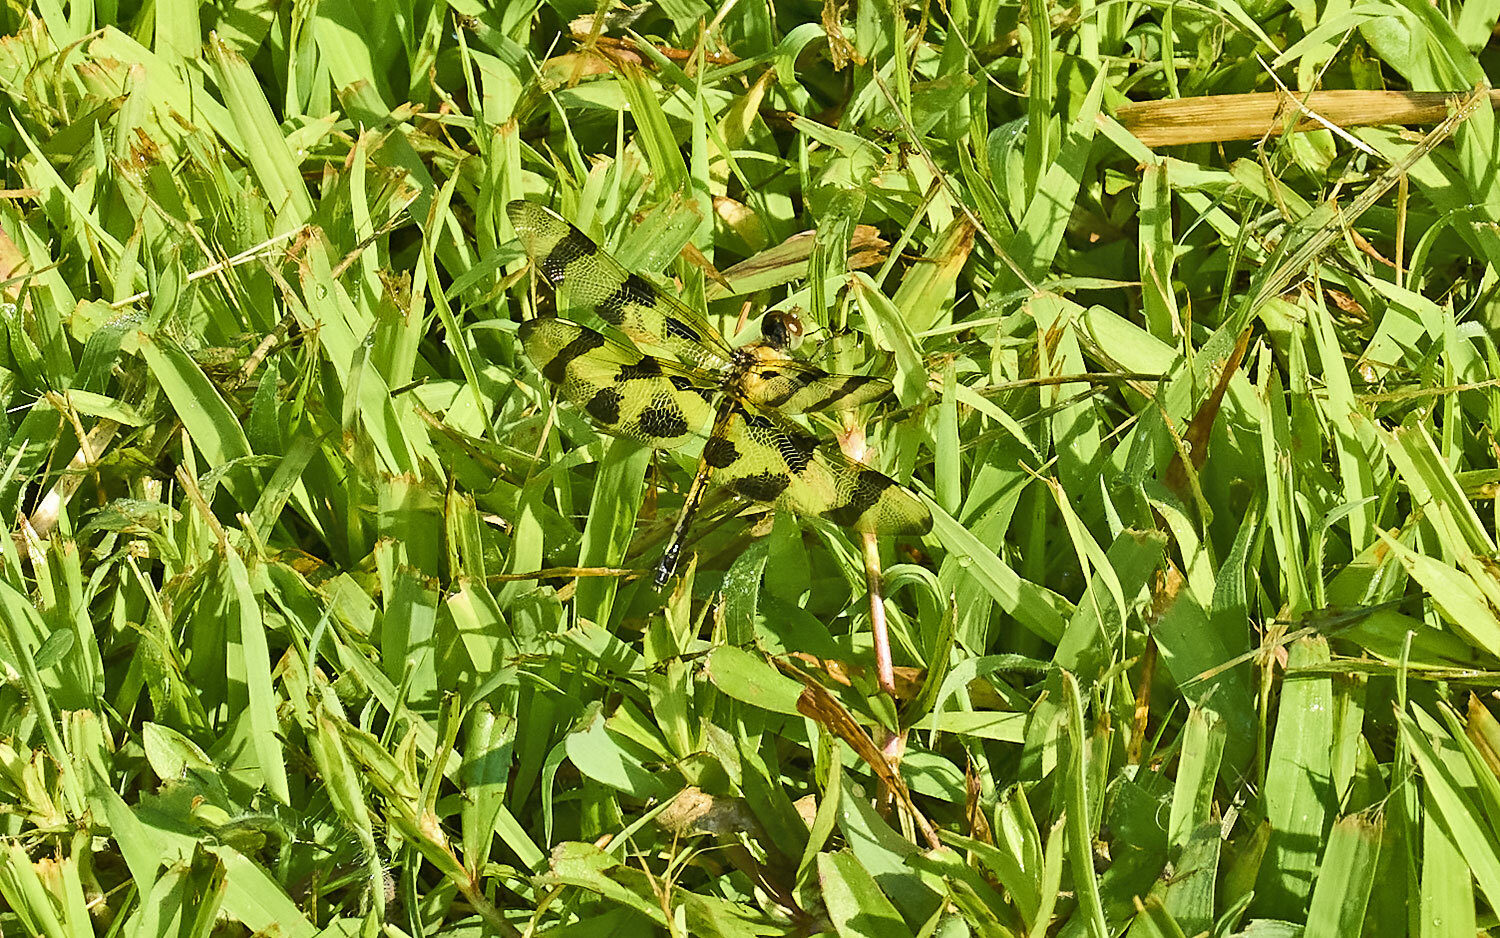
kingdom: Animalia
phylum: Arthropoda
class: Insecta
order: Odonata
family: Libellulidae
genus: Celithemis
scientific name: Celithemis eponina
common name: Halloween pennant
